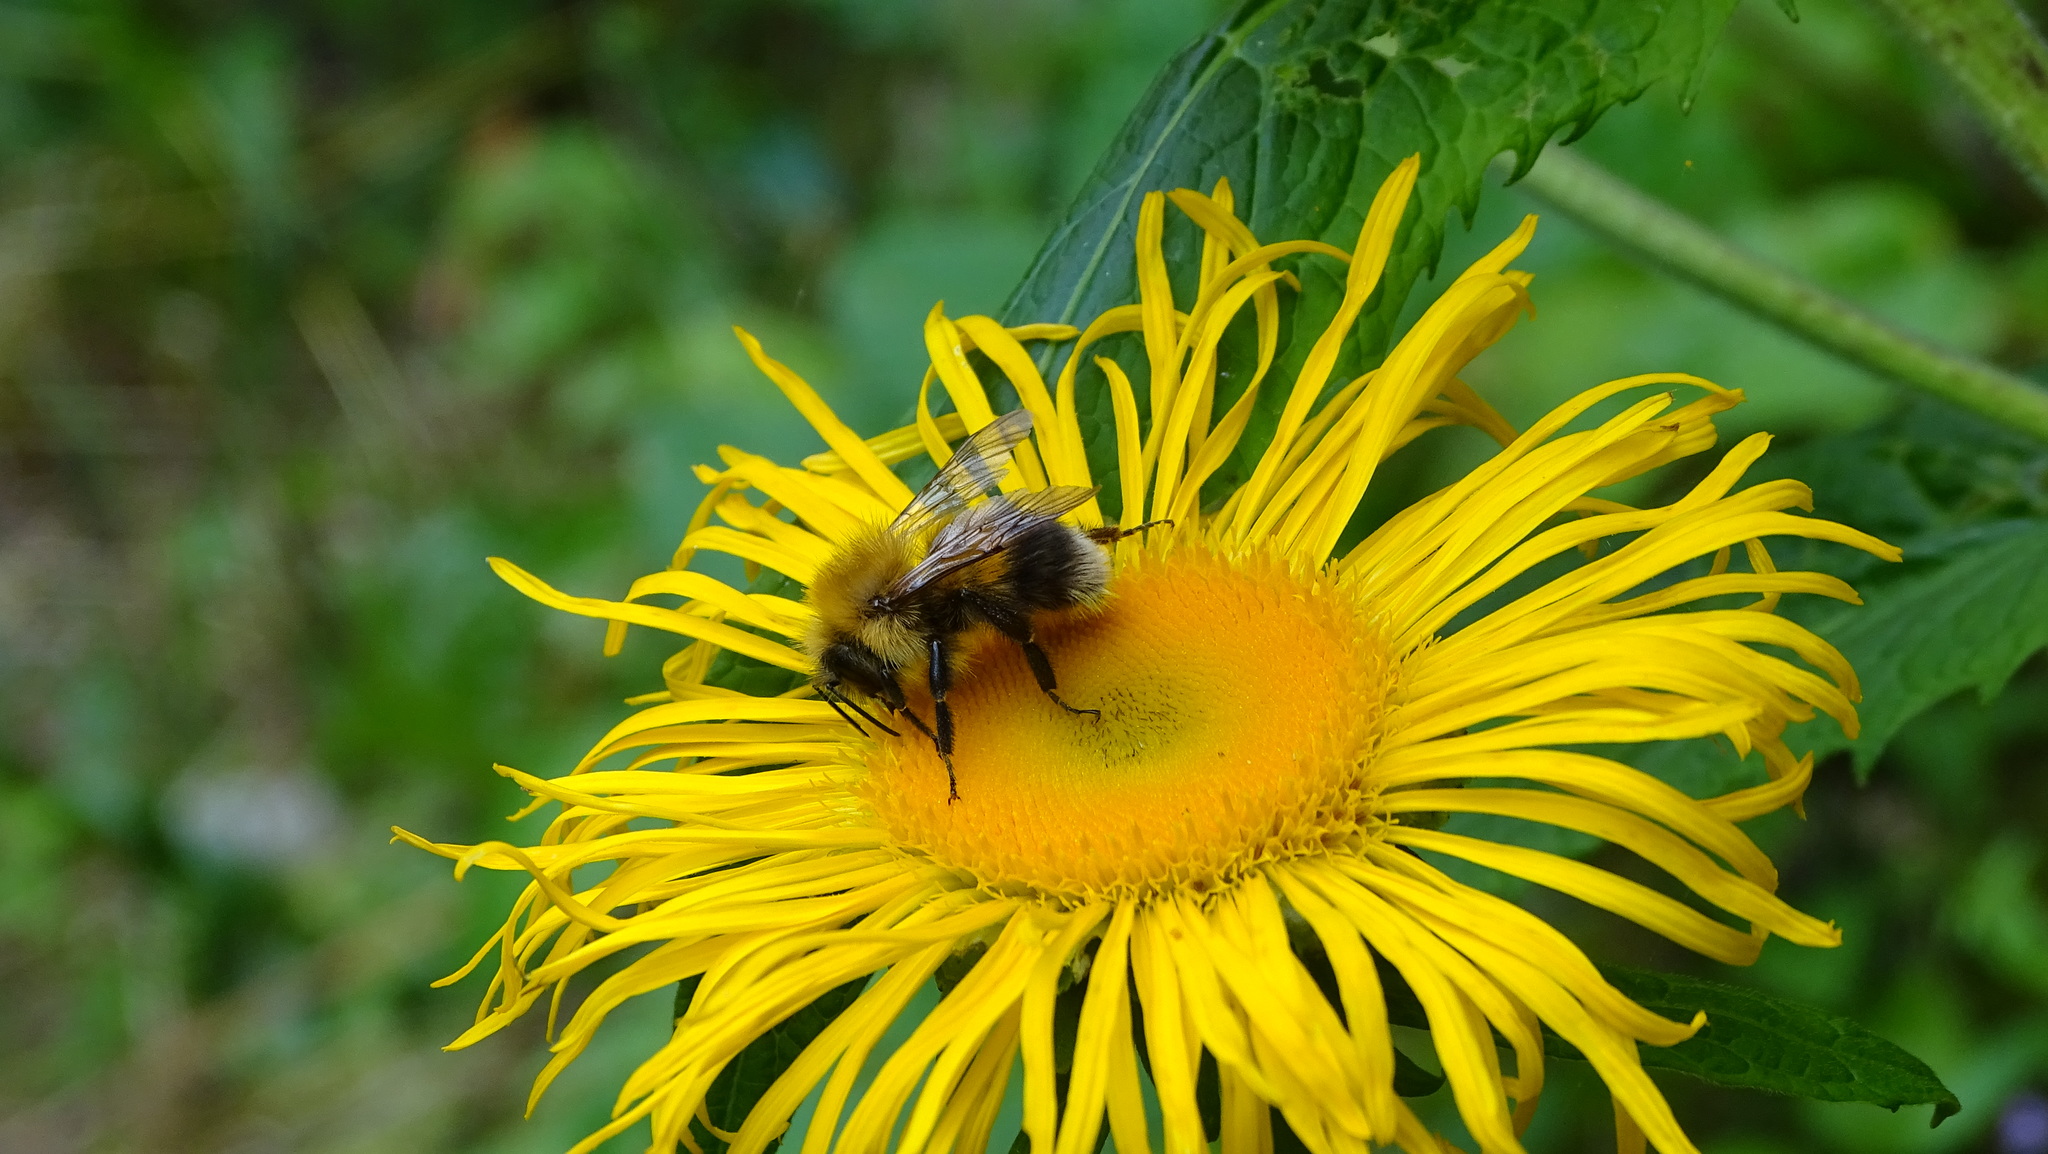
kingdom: Animalia
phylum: Arthropoda
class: Insecta
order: Hymenoptera
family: Apidae
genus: Bombus
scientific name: Bombus hypnorum
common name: New garden bumblebee
